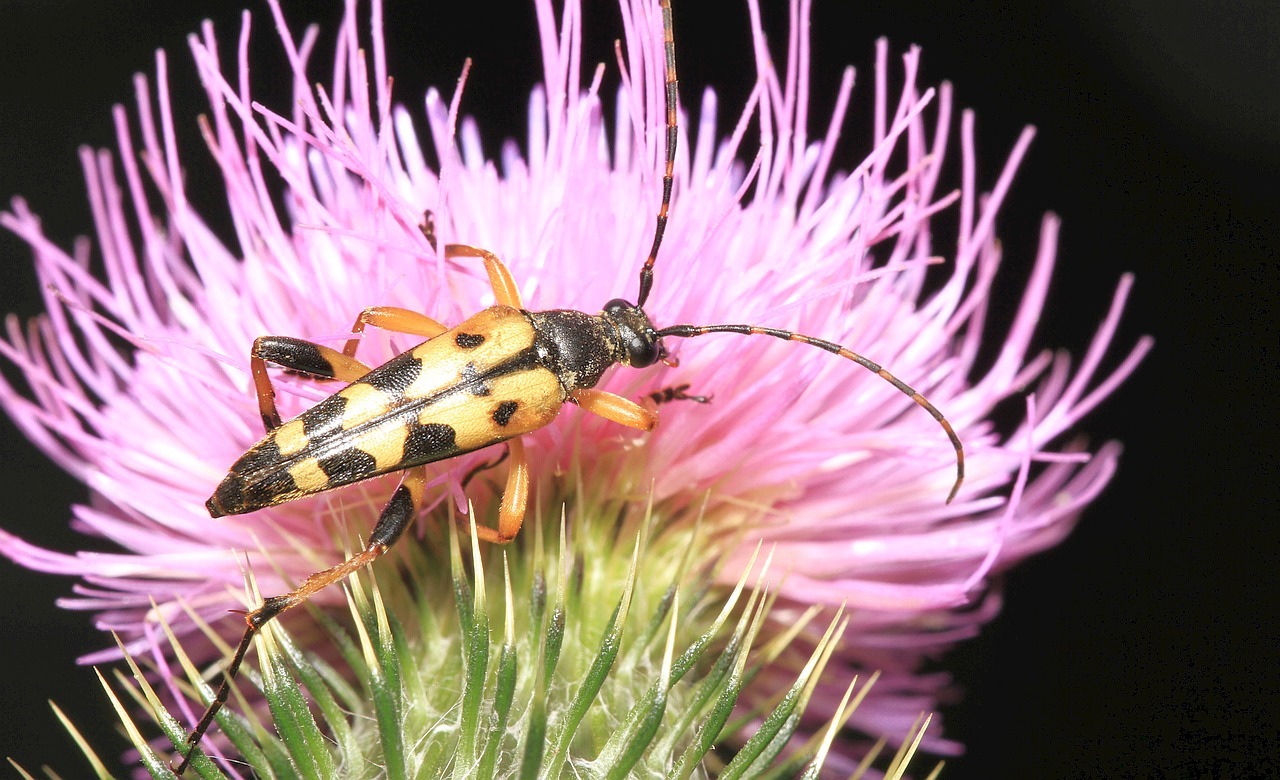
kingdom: Animalia
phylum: Arthropoda
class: Insecta
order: Coleoptera
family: Cerambycidae
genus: Rutpela
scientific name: Rutpela maculata
